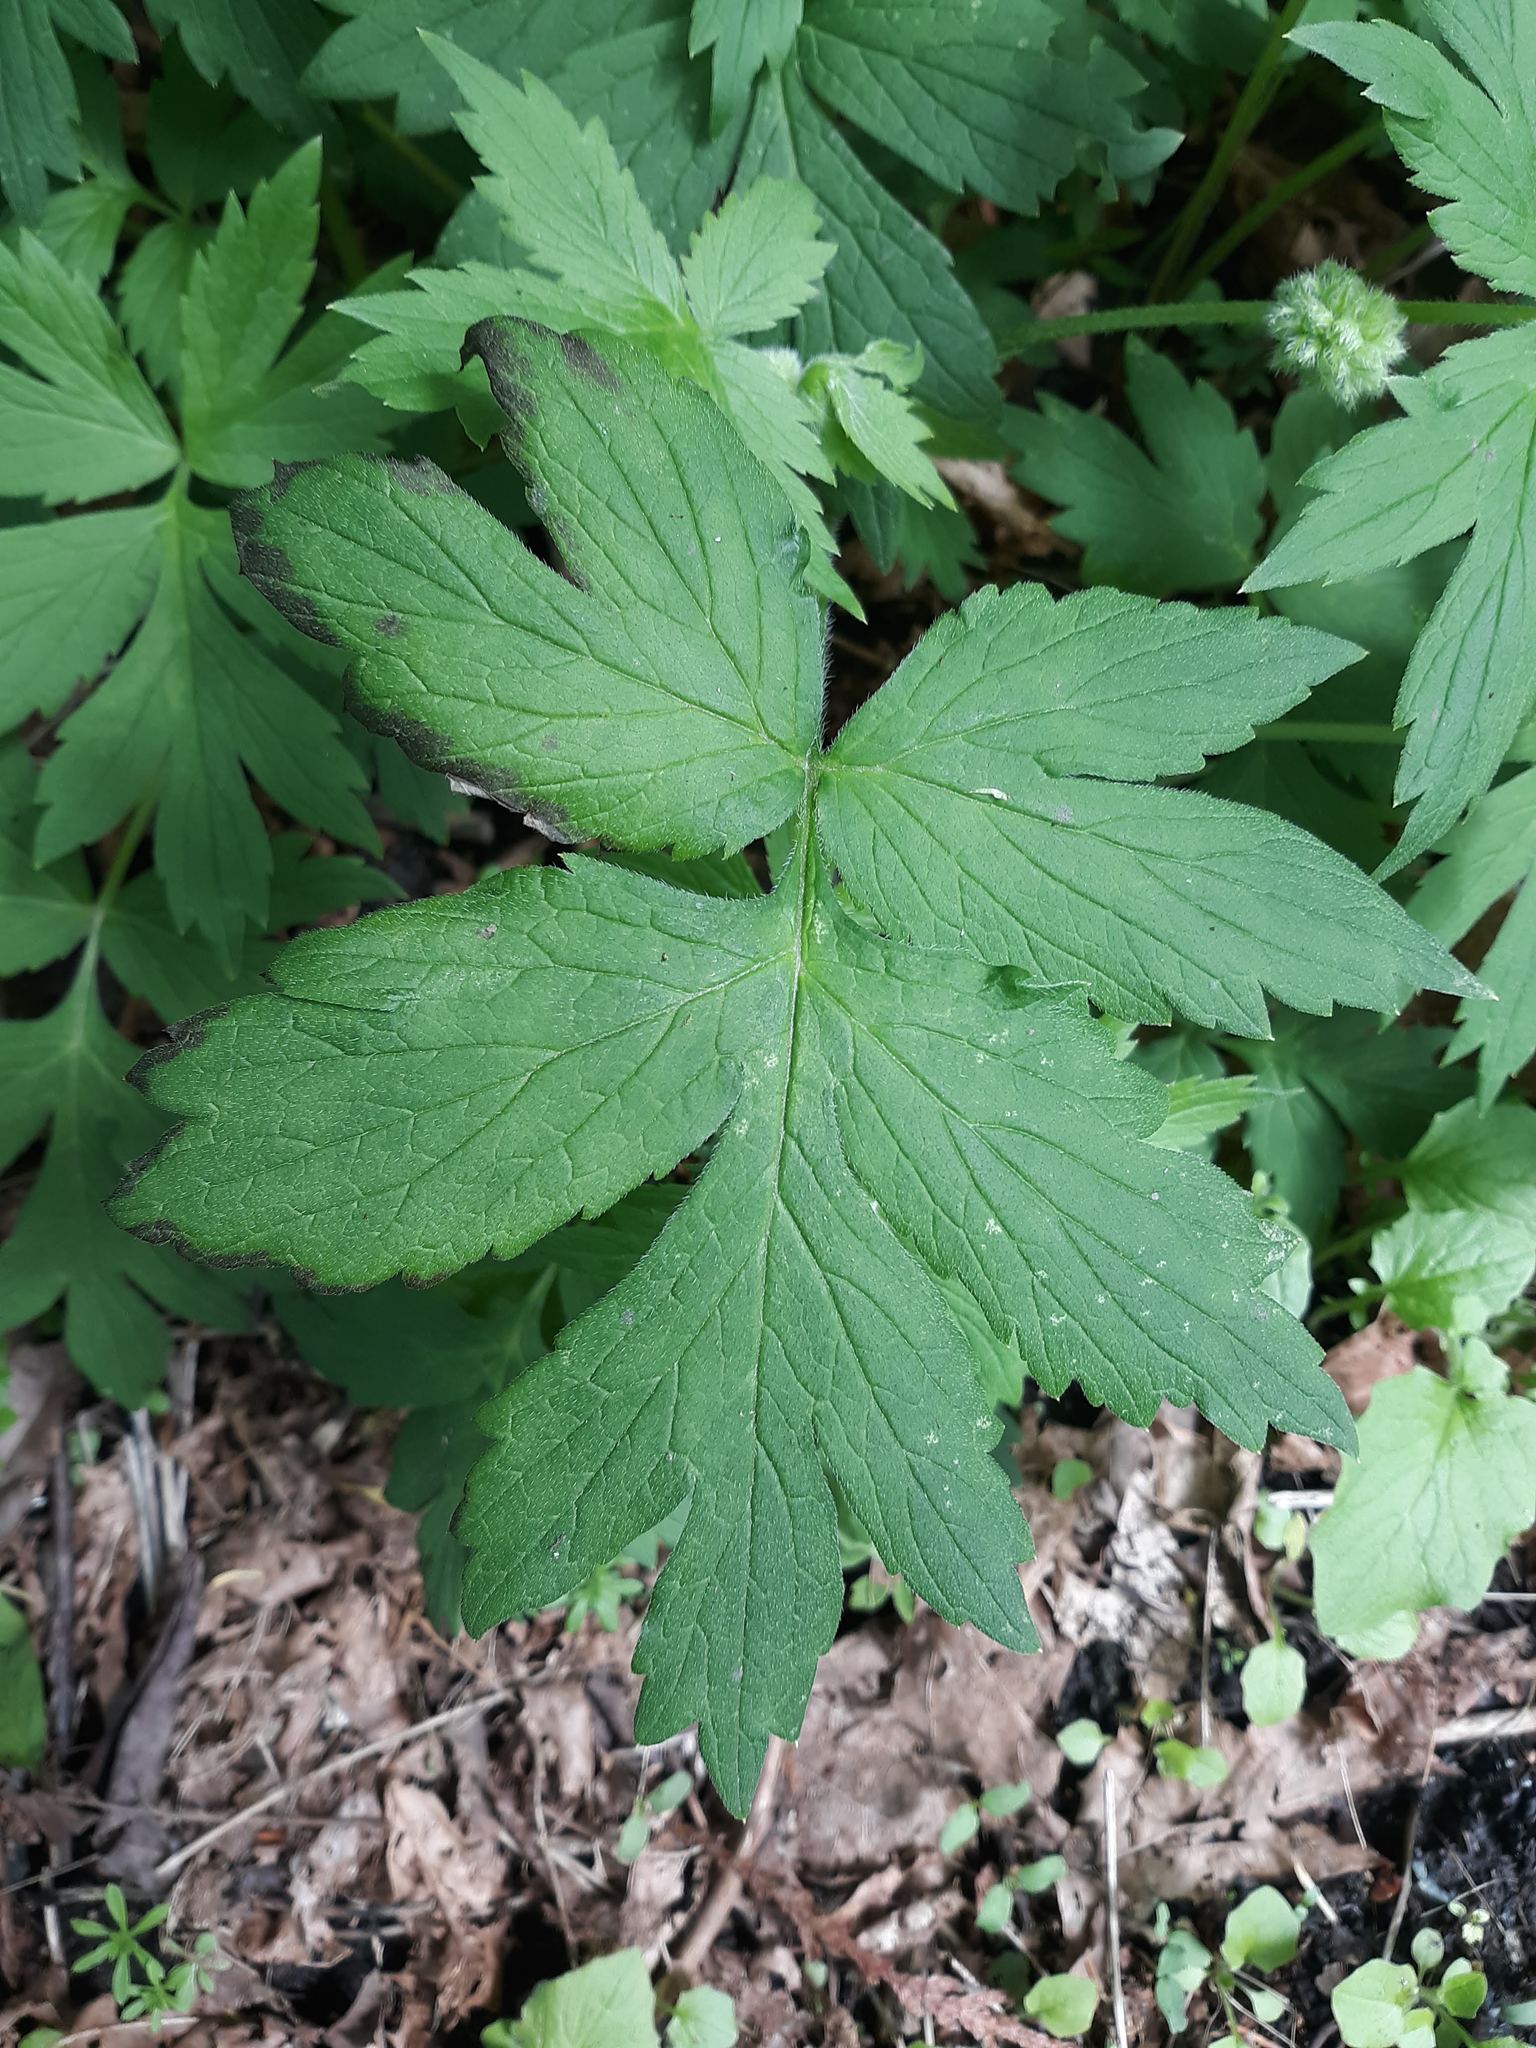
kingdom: Plantae
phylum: Tracheophyta
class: Magnoliopsida
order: Boraginales
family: Hydrophyllaceae
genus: Hydrophyllum
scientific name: Hydrophyllum tenuipes
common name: Pacific waterleaf
